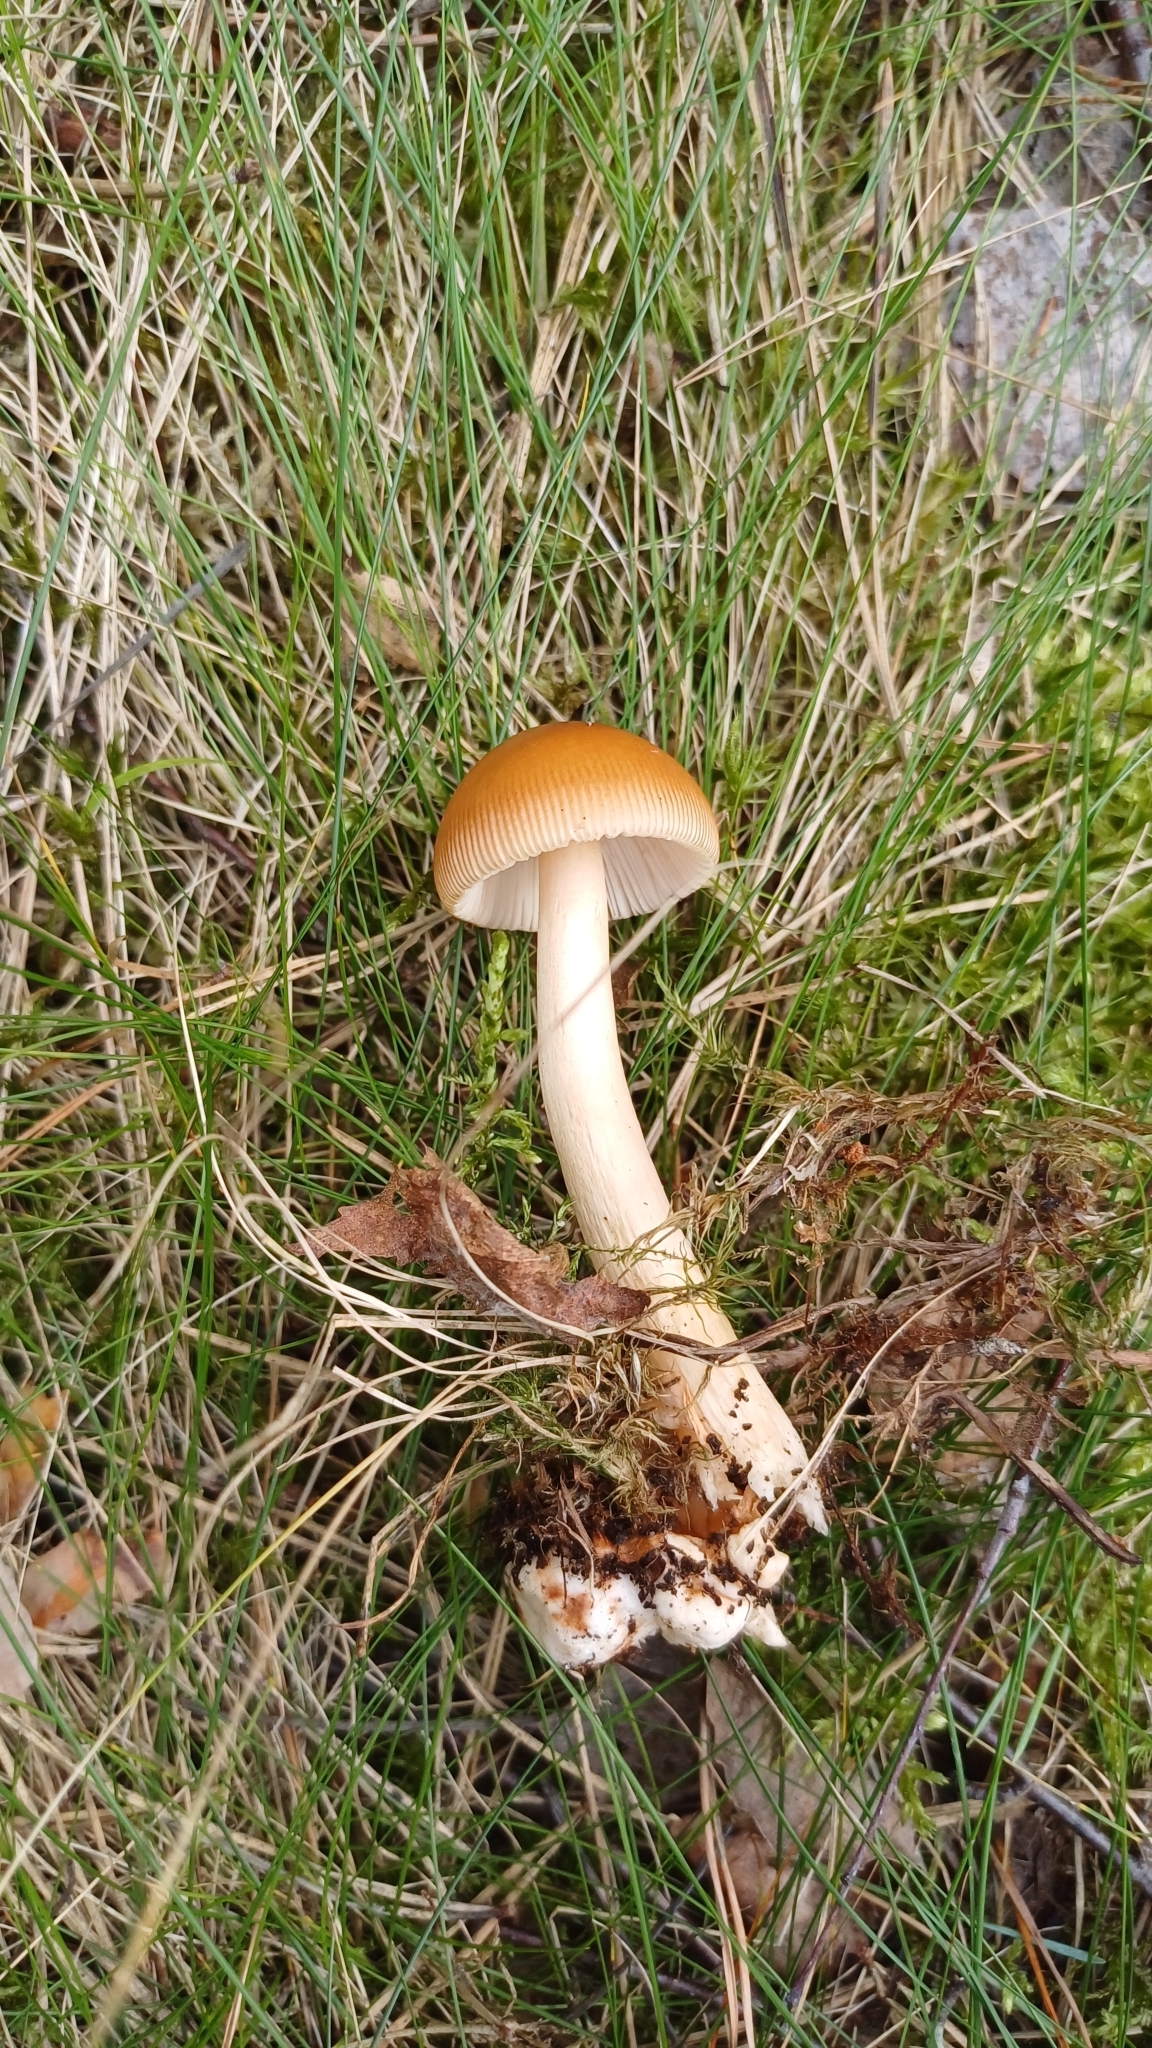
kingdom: Fungi
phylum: Basidiomycota
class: Agaricomycetes
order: Agaricales
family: Amanitaceae
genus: Amanita
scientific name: Amanita fulva
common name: Tawny grisette
